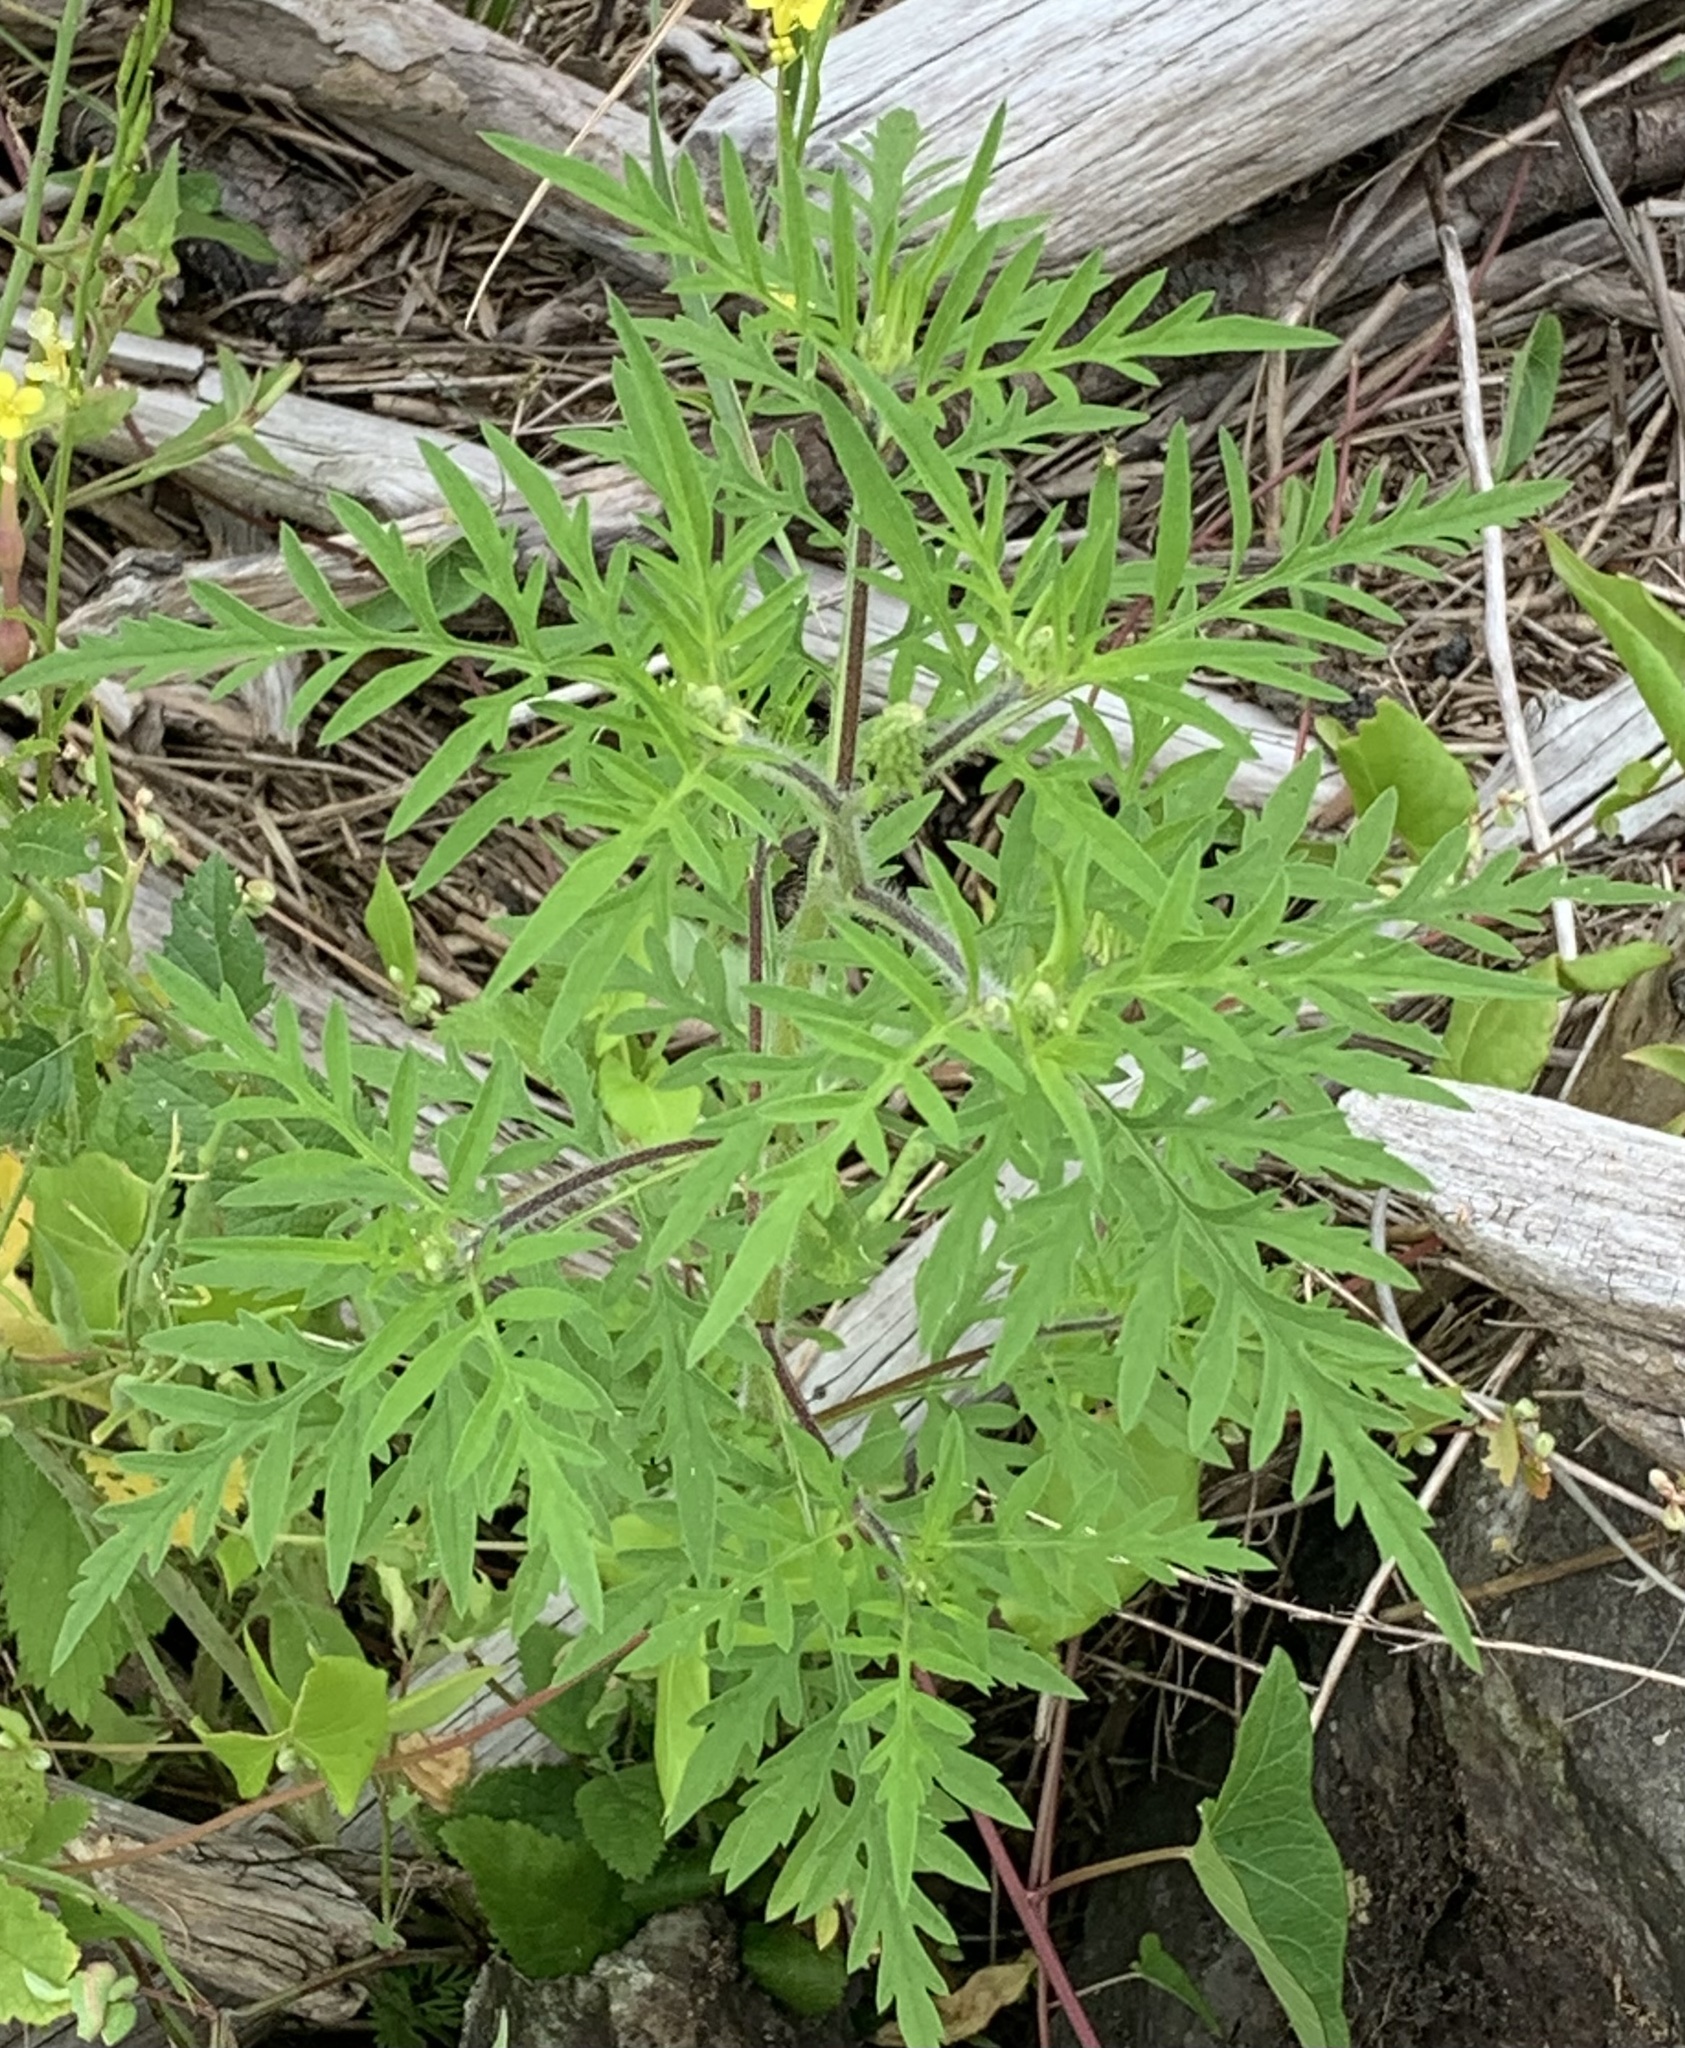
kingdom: Plantae
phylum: Tracheophyta
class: Magnoliopsida
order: Asterales
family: Asteraceae
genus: Ambrosia
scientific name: Ambrosia artemisiifolia
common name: Annual ragweed
